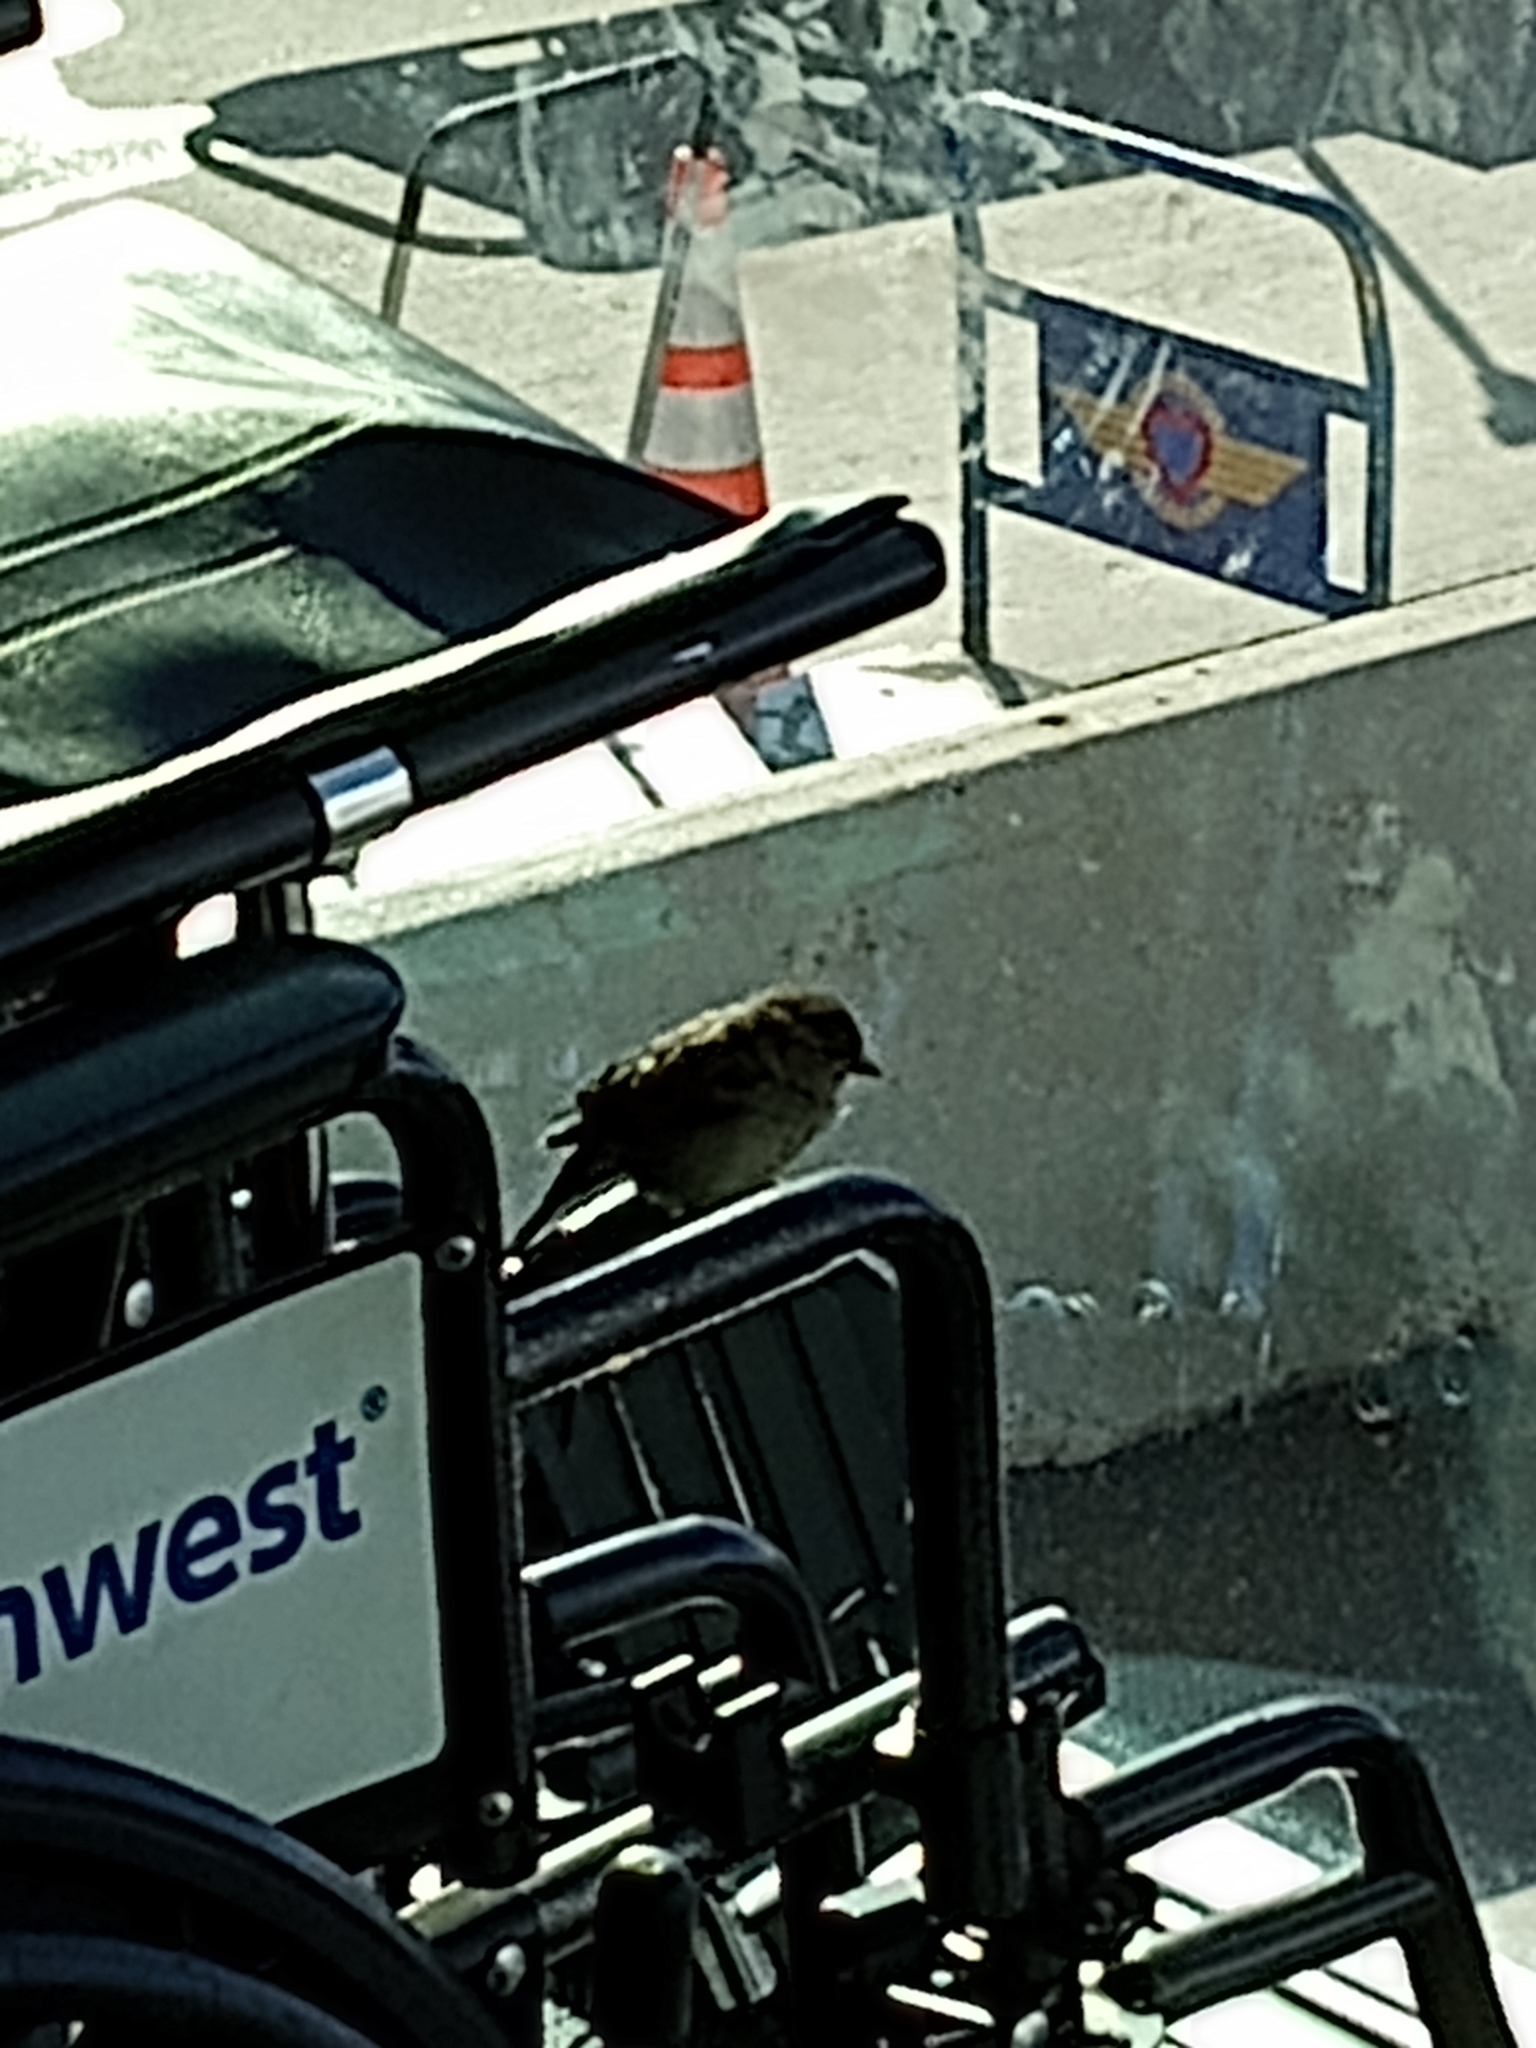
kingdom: Animalia
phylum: Chordata
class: Aves
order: Passeriformes
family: Passeridae
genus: Passer
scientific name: Passer domesticus
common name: House sparrow
